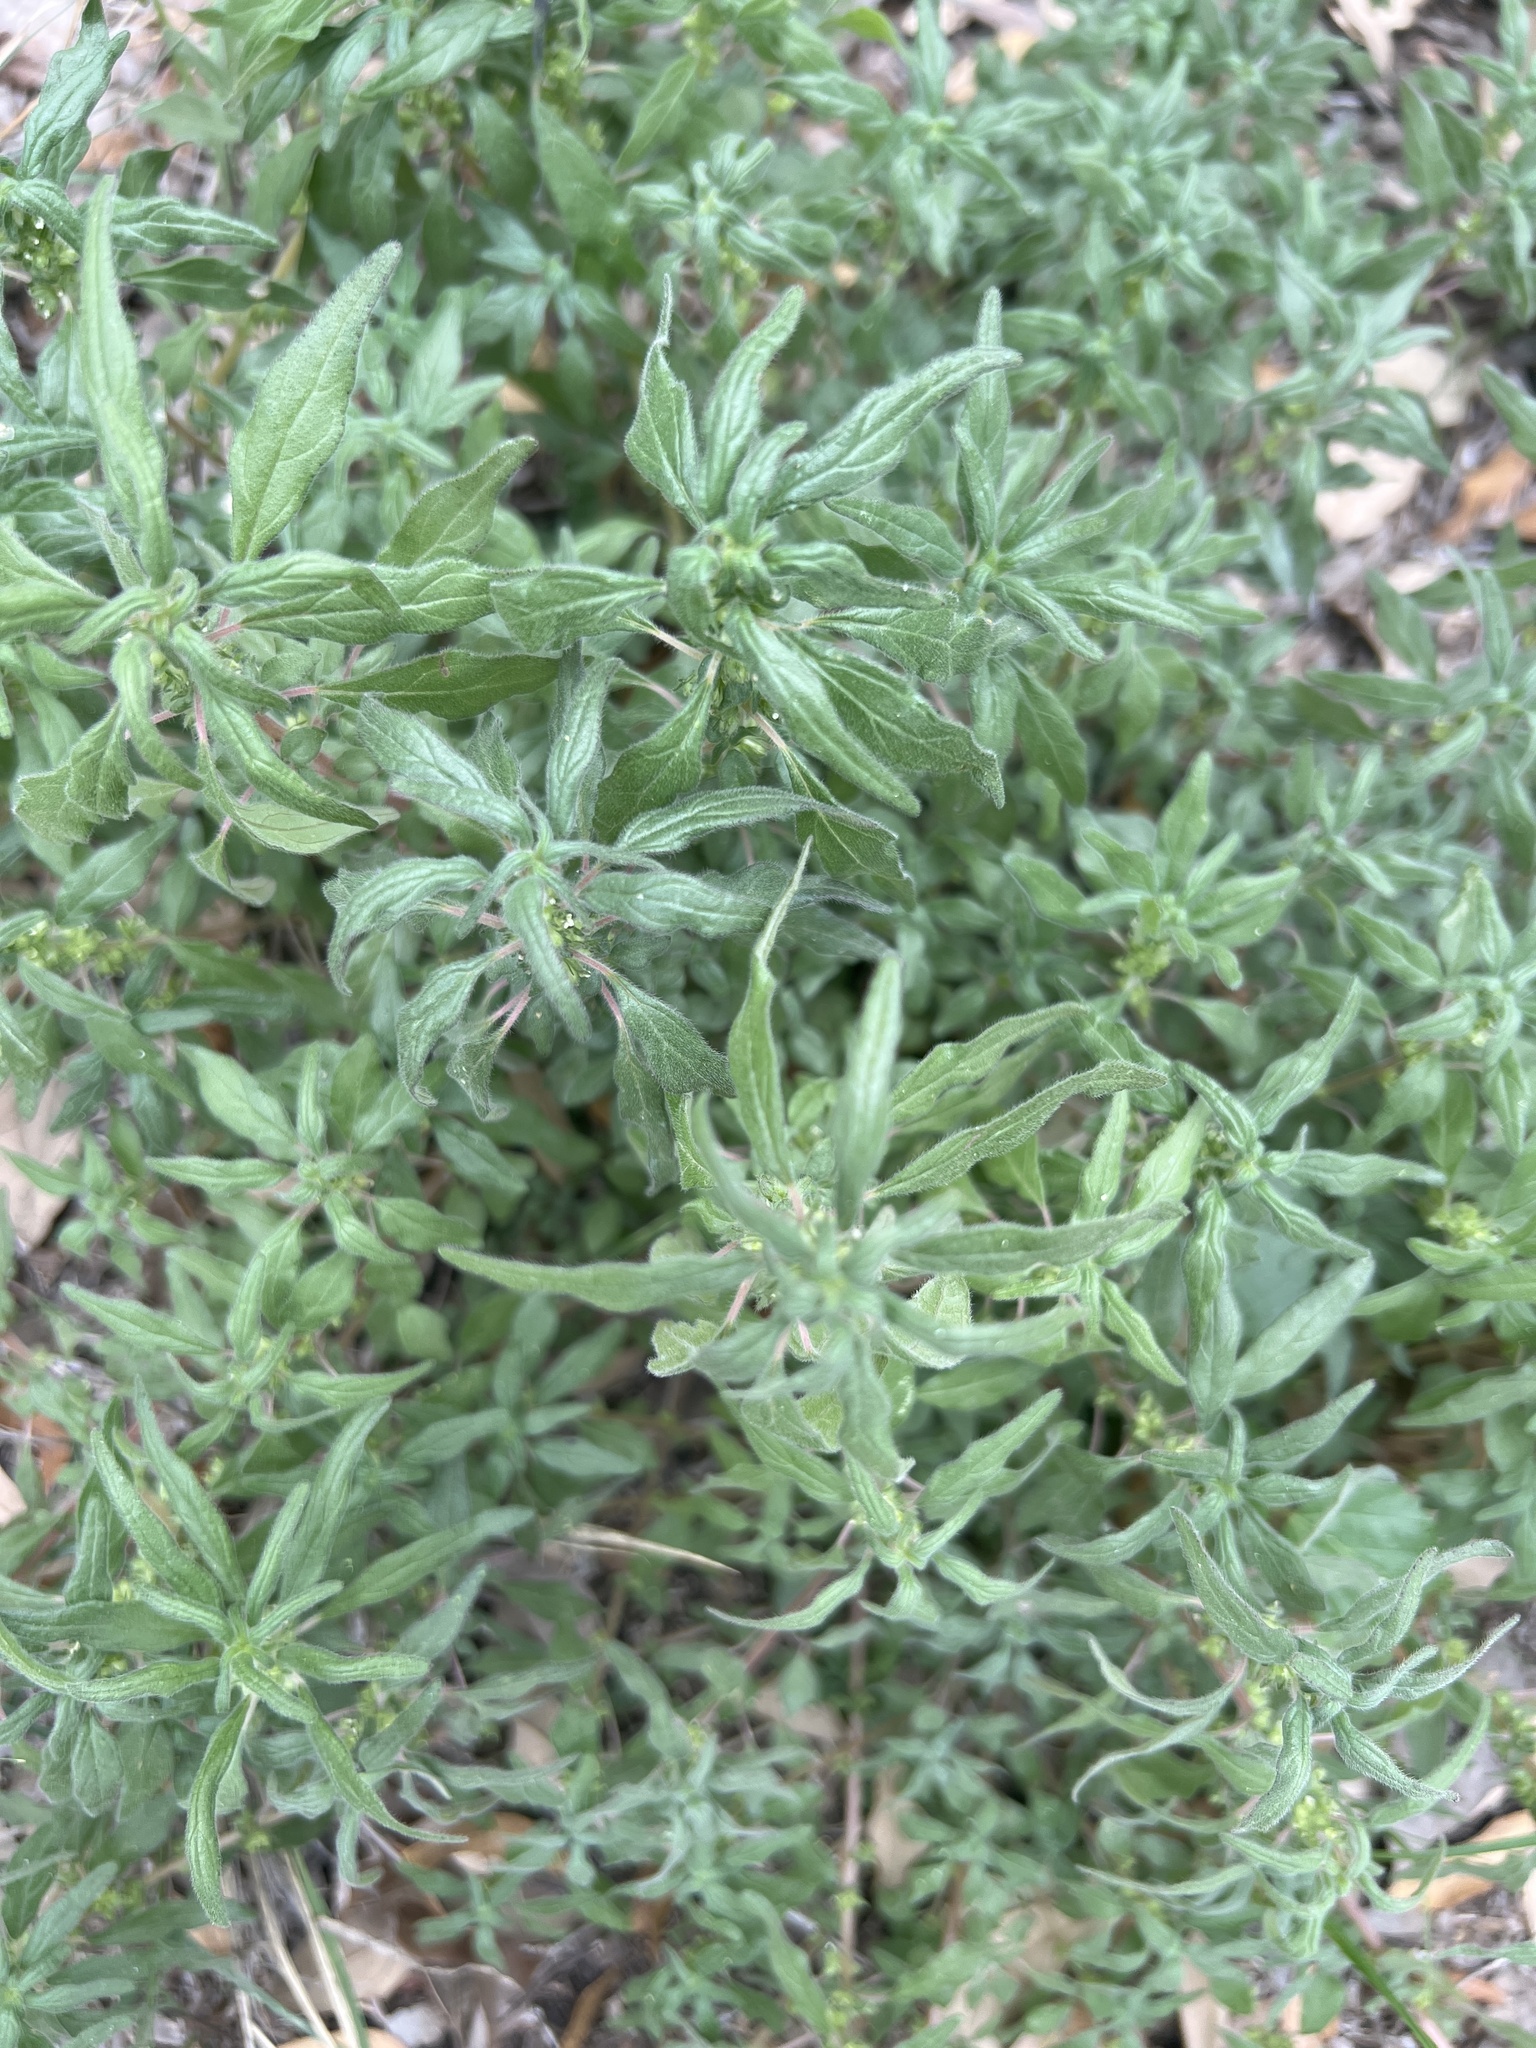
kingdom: Plantae
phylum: Tracheophyta
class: Magnoliopsida
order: Rosales
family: Urticaceae
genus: Parietaria
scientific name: Parietaria pensylvanica
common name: Pennsylvania pellitory
